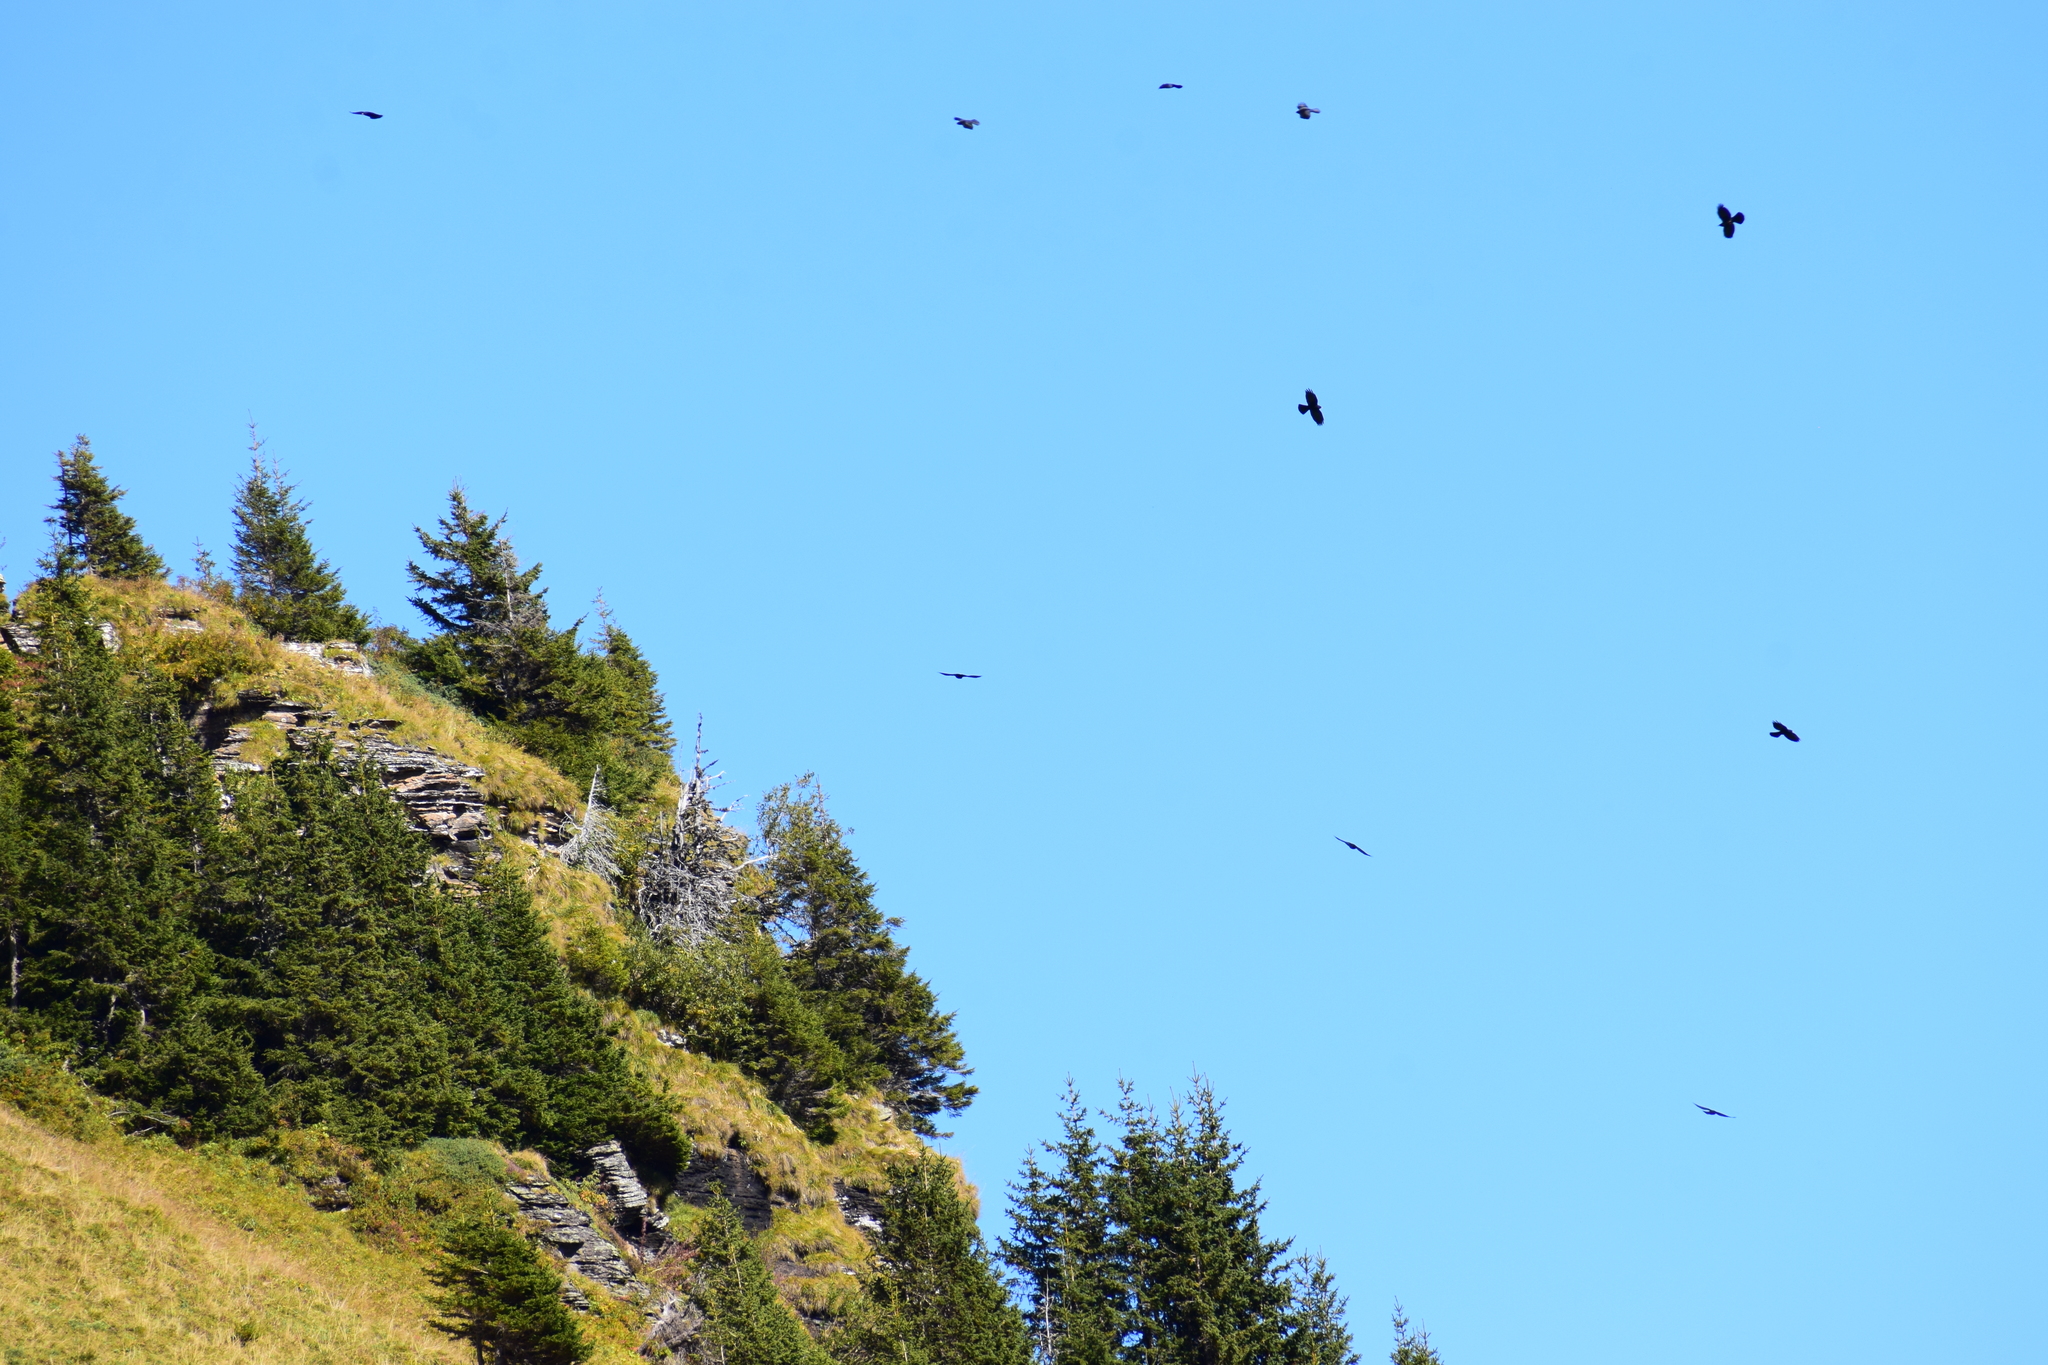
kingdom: Animalia
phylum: Chordata
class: Aves
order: Passeriformes
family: Corvidae
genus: Pyrrhocorax
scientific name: Pyrrhocorax graculus
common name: Alpine chough
